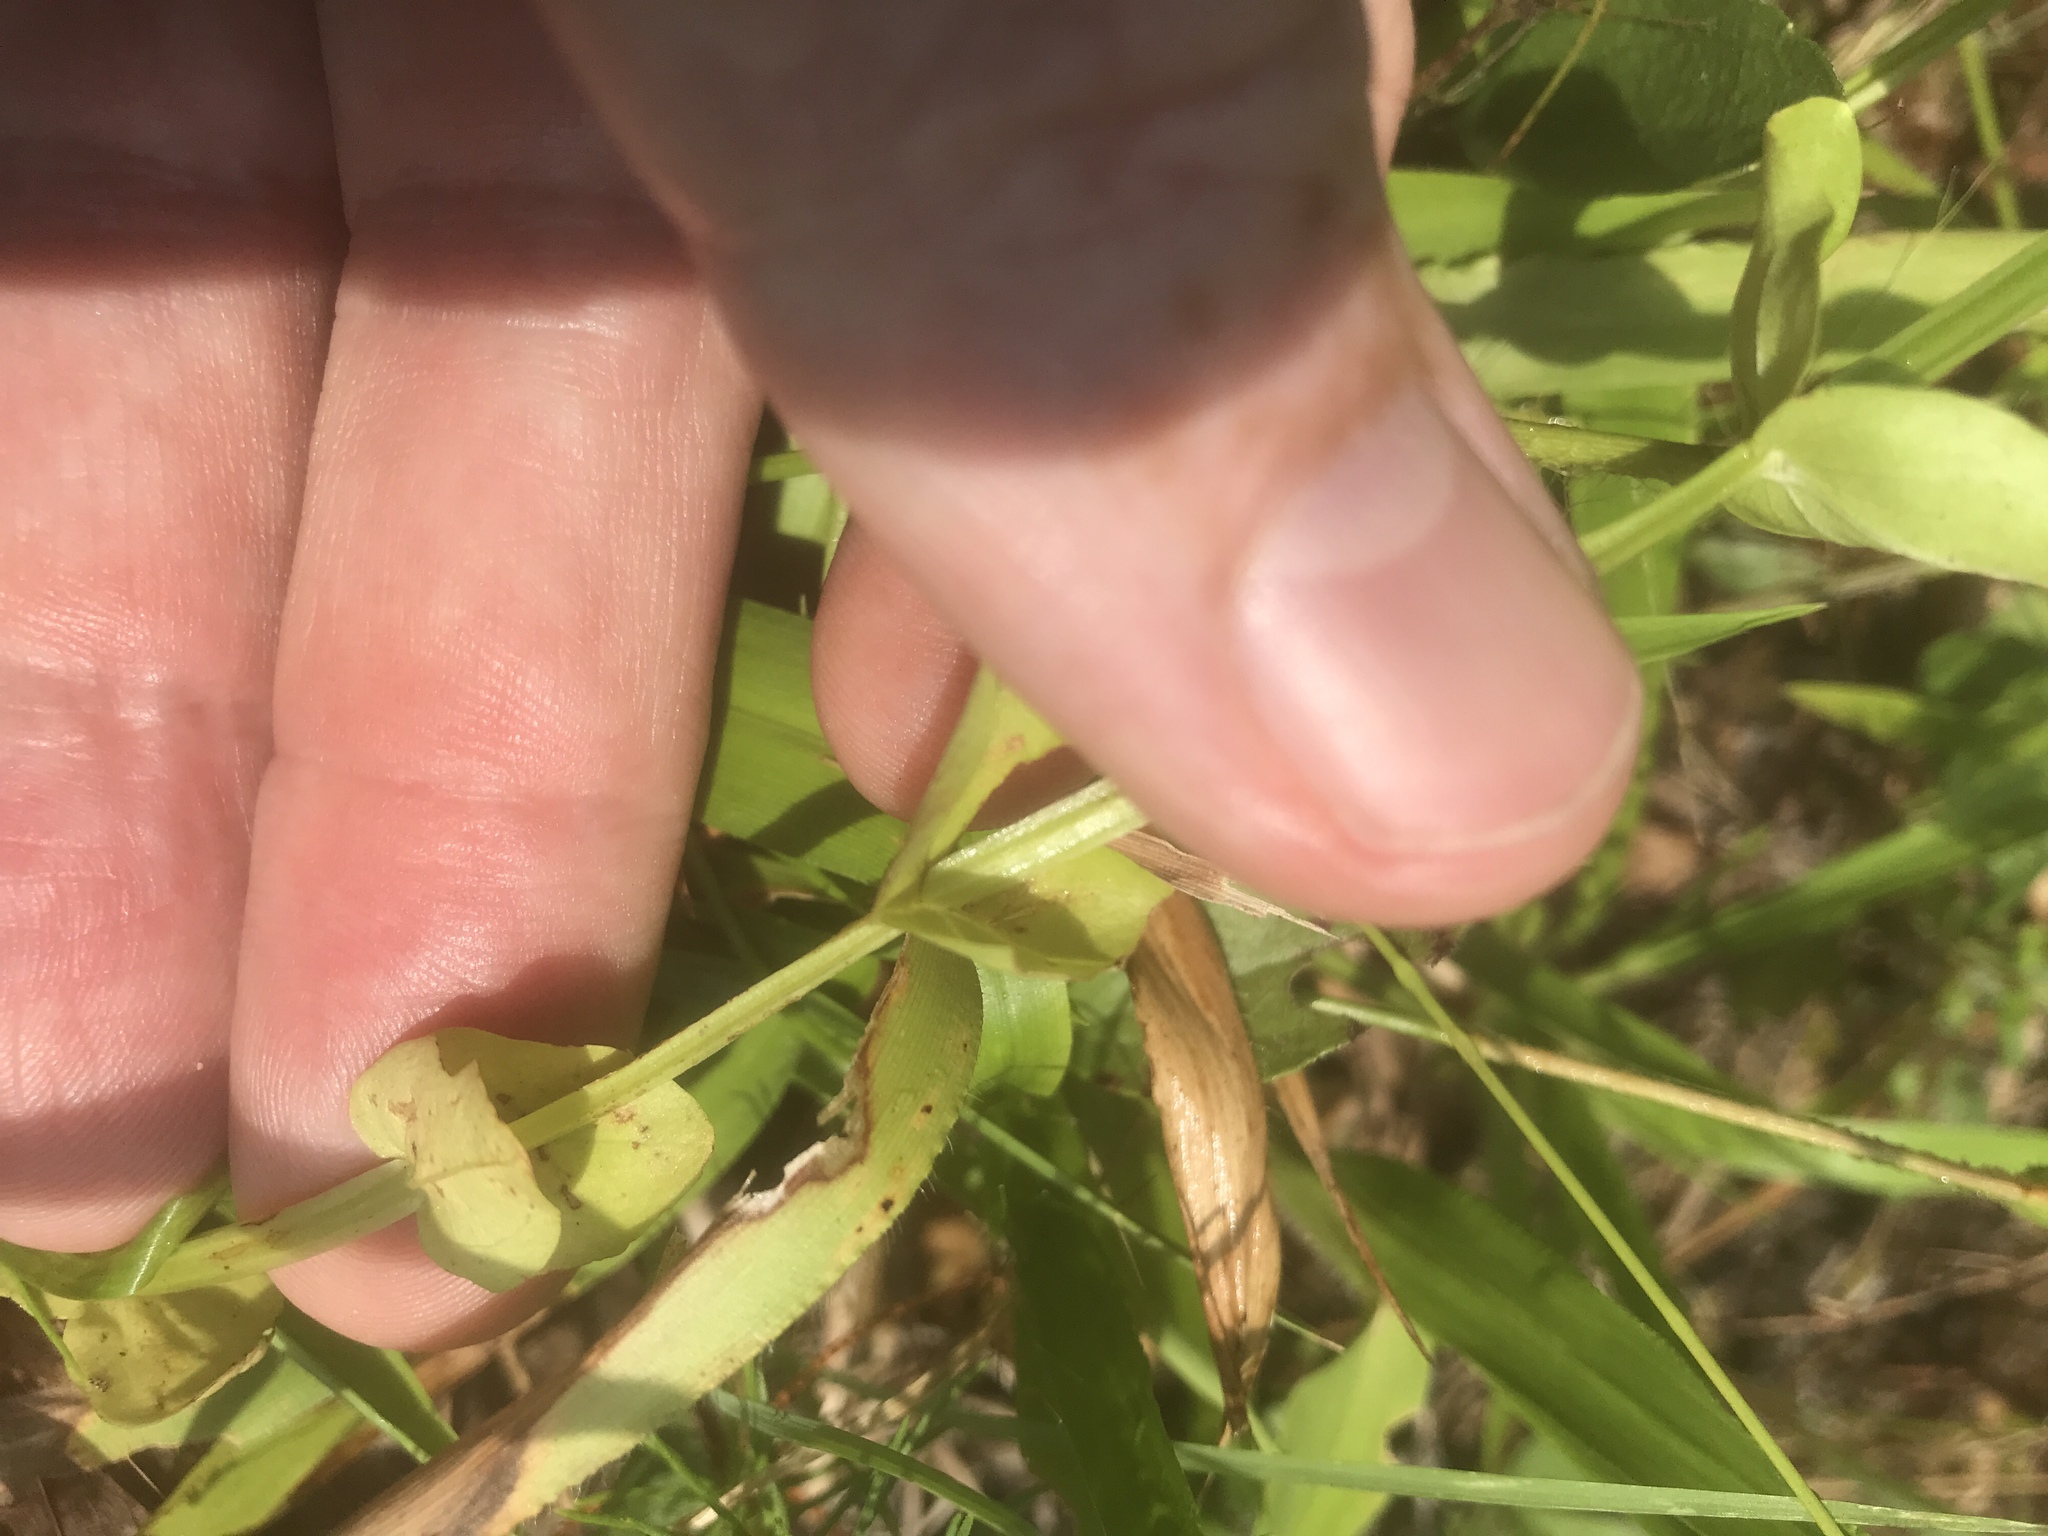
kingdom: Plantae
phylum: Tracheophyta
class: Magnoliopsida
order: Gentianales
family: Gentianaceae
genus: Sabatia
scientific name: Sabatia angularis
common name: Rose-pink
